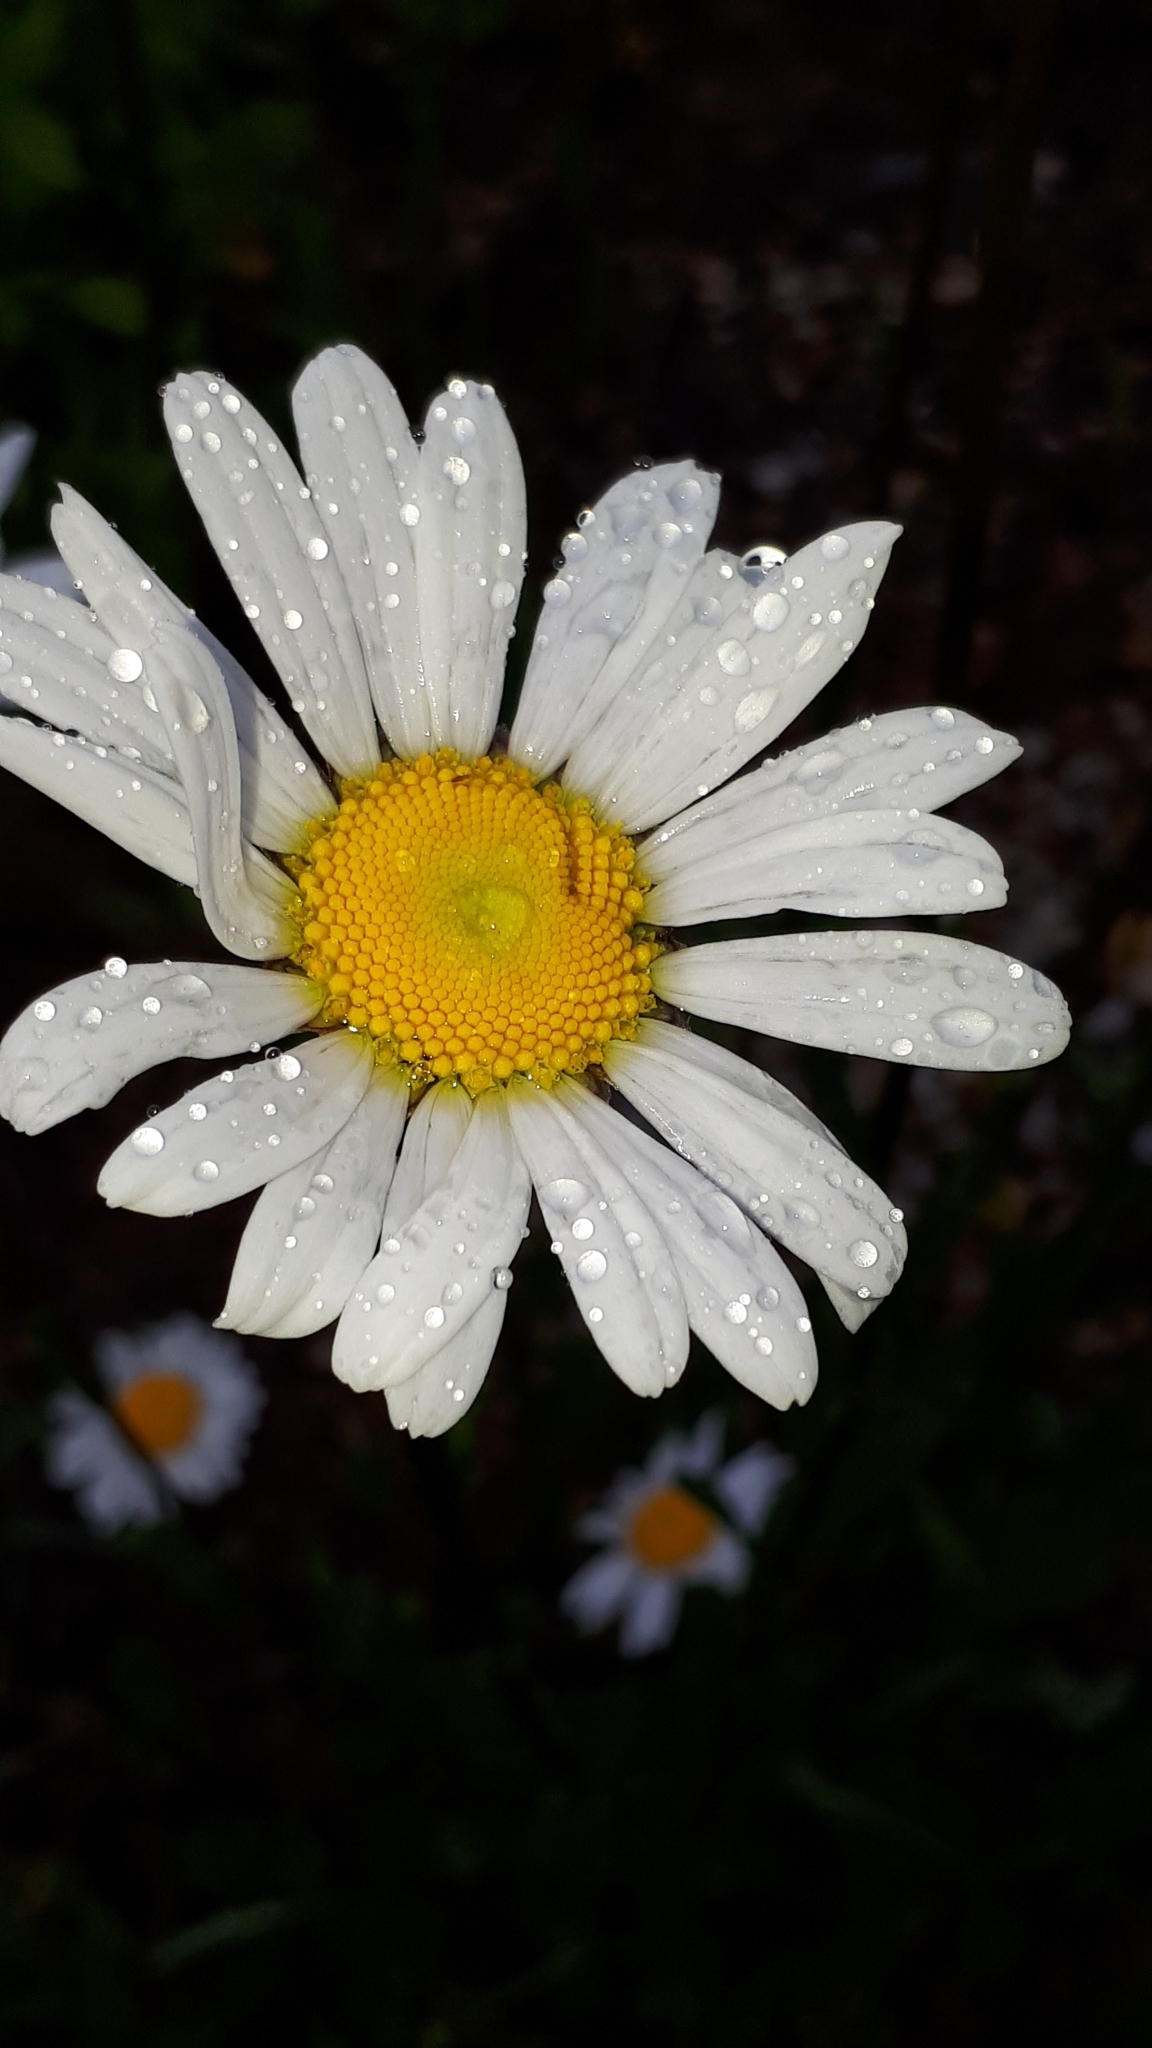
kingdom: Plantae
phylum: Tracheophyta
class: Magnoliopsida
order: Asterales
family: Asteraceae
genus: Leucanthemum
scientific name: Leucanthemum vulgare
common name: Oxeye daisy
